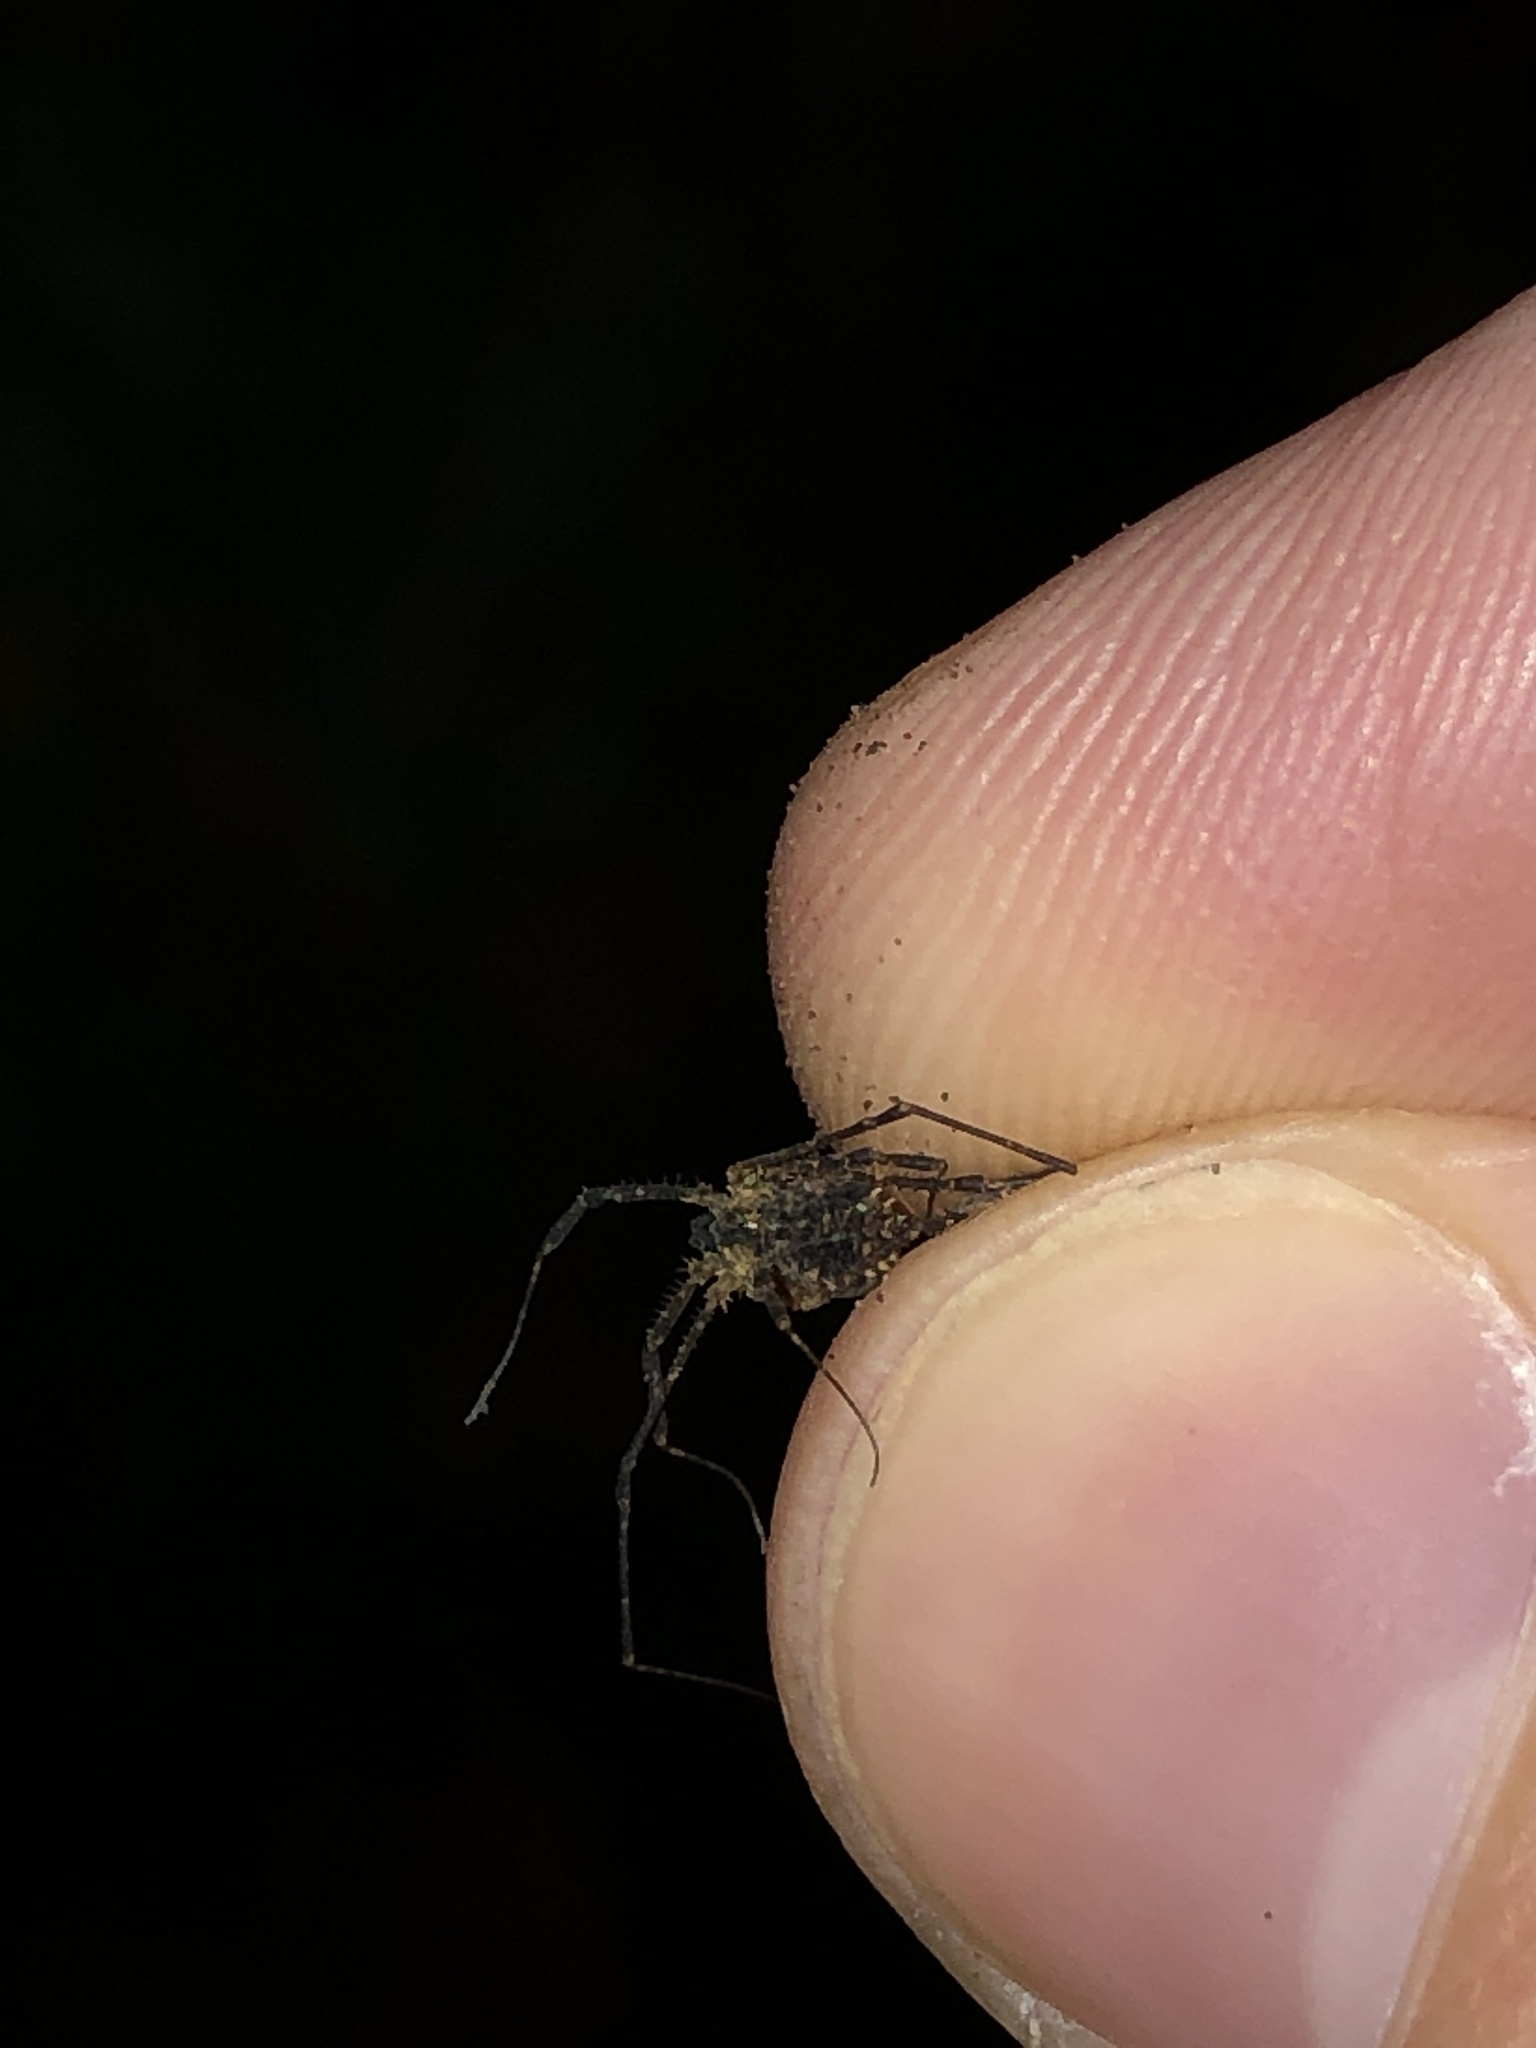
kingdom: Animalia
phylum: Arthropoda
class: Arachnida
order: Opiliones
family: Sclerosomatidae
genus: Astrobunus
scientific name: Astrobunus helleri
